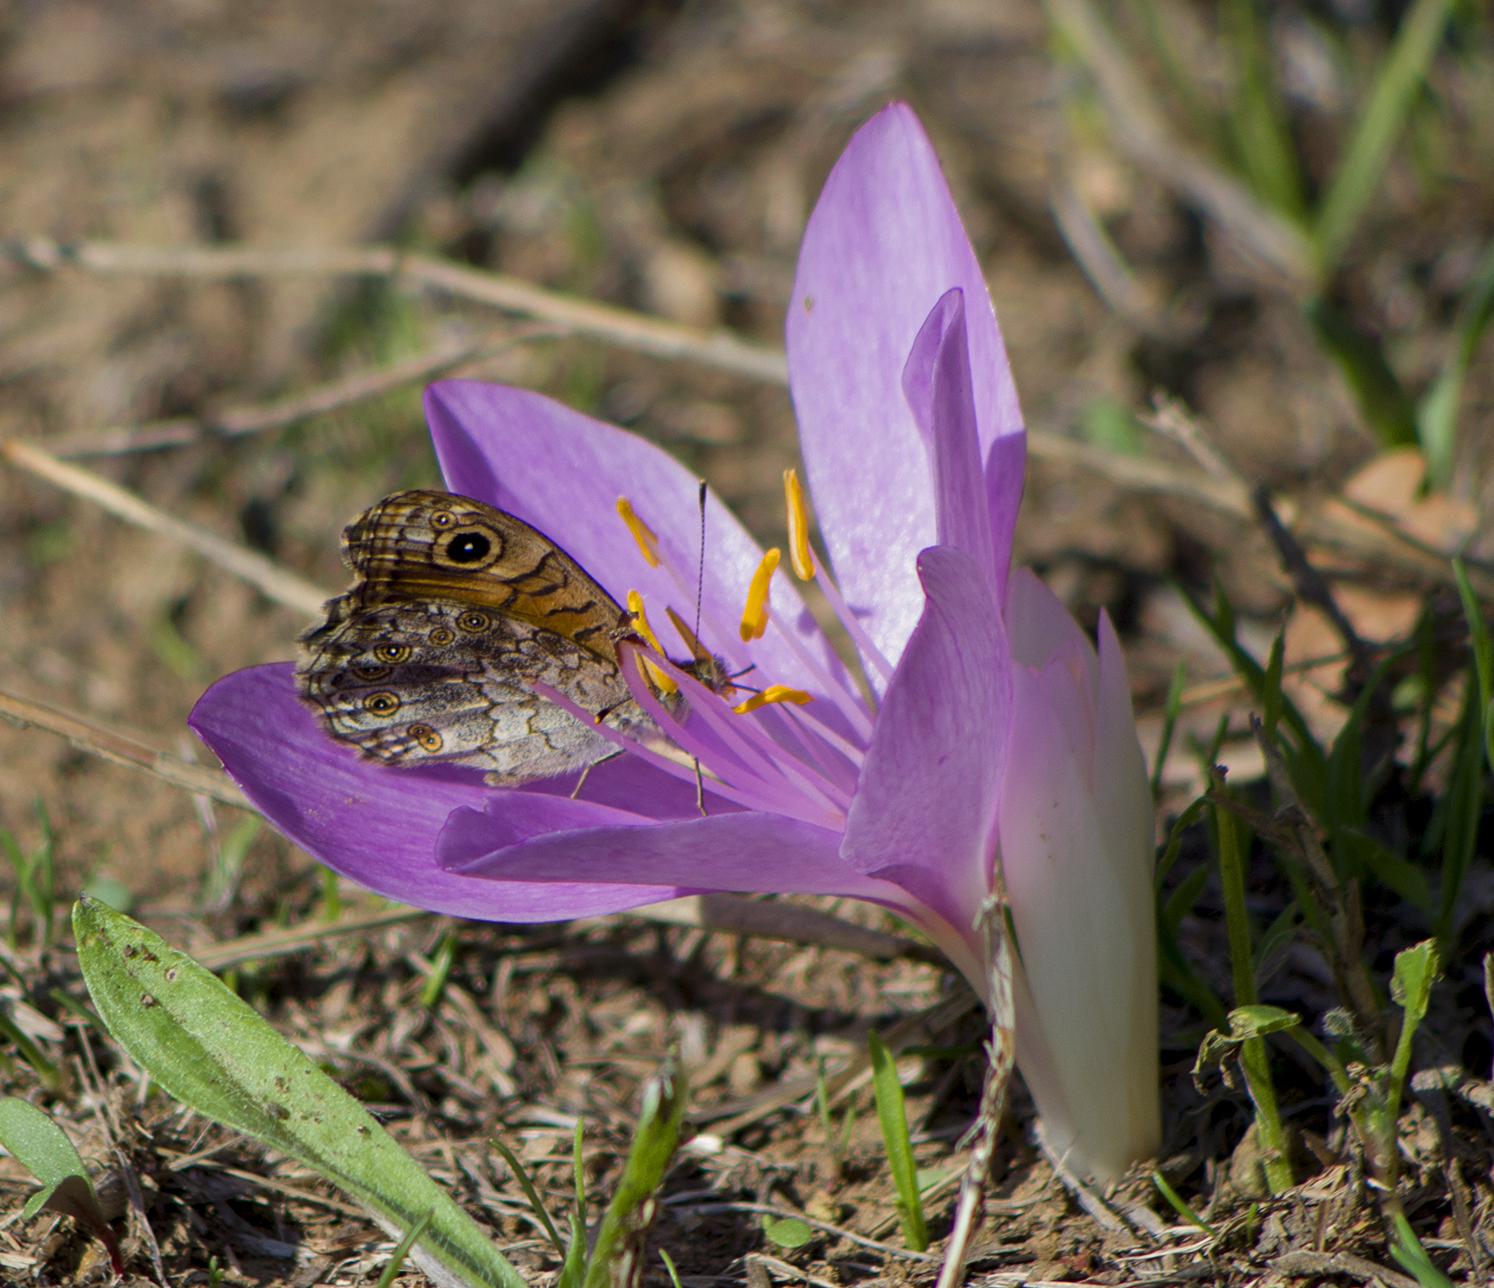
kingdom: Animalia
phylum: Arthropoda
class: Insecta
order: Lepidoptera
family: Nymphalidae
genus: Pararge
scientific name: Pararge Lasiommata megera
